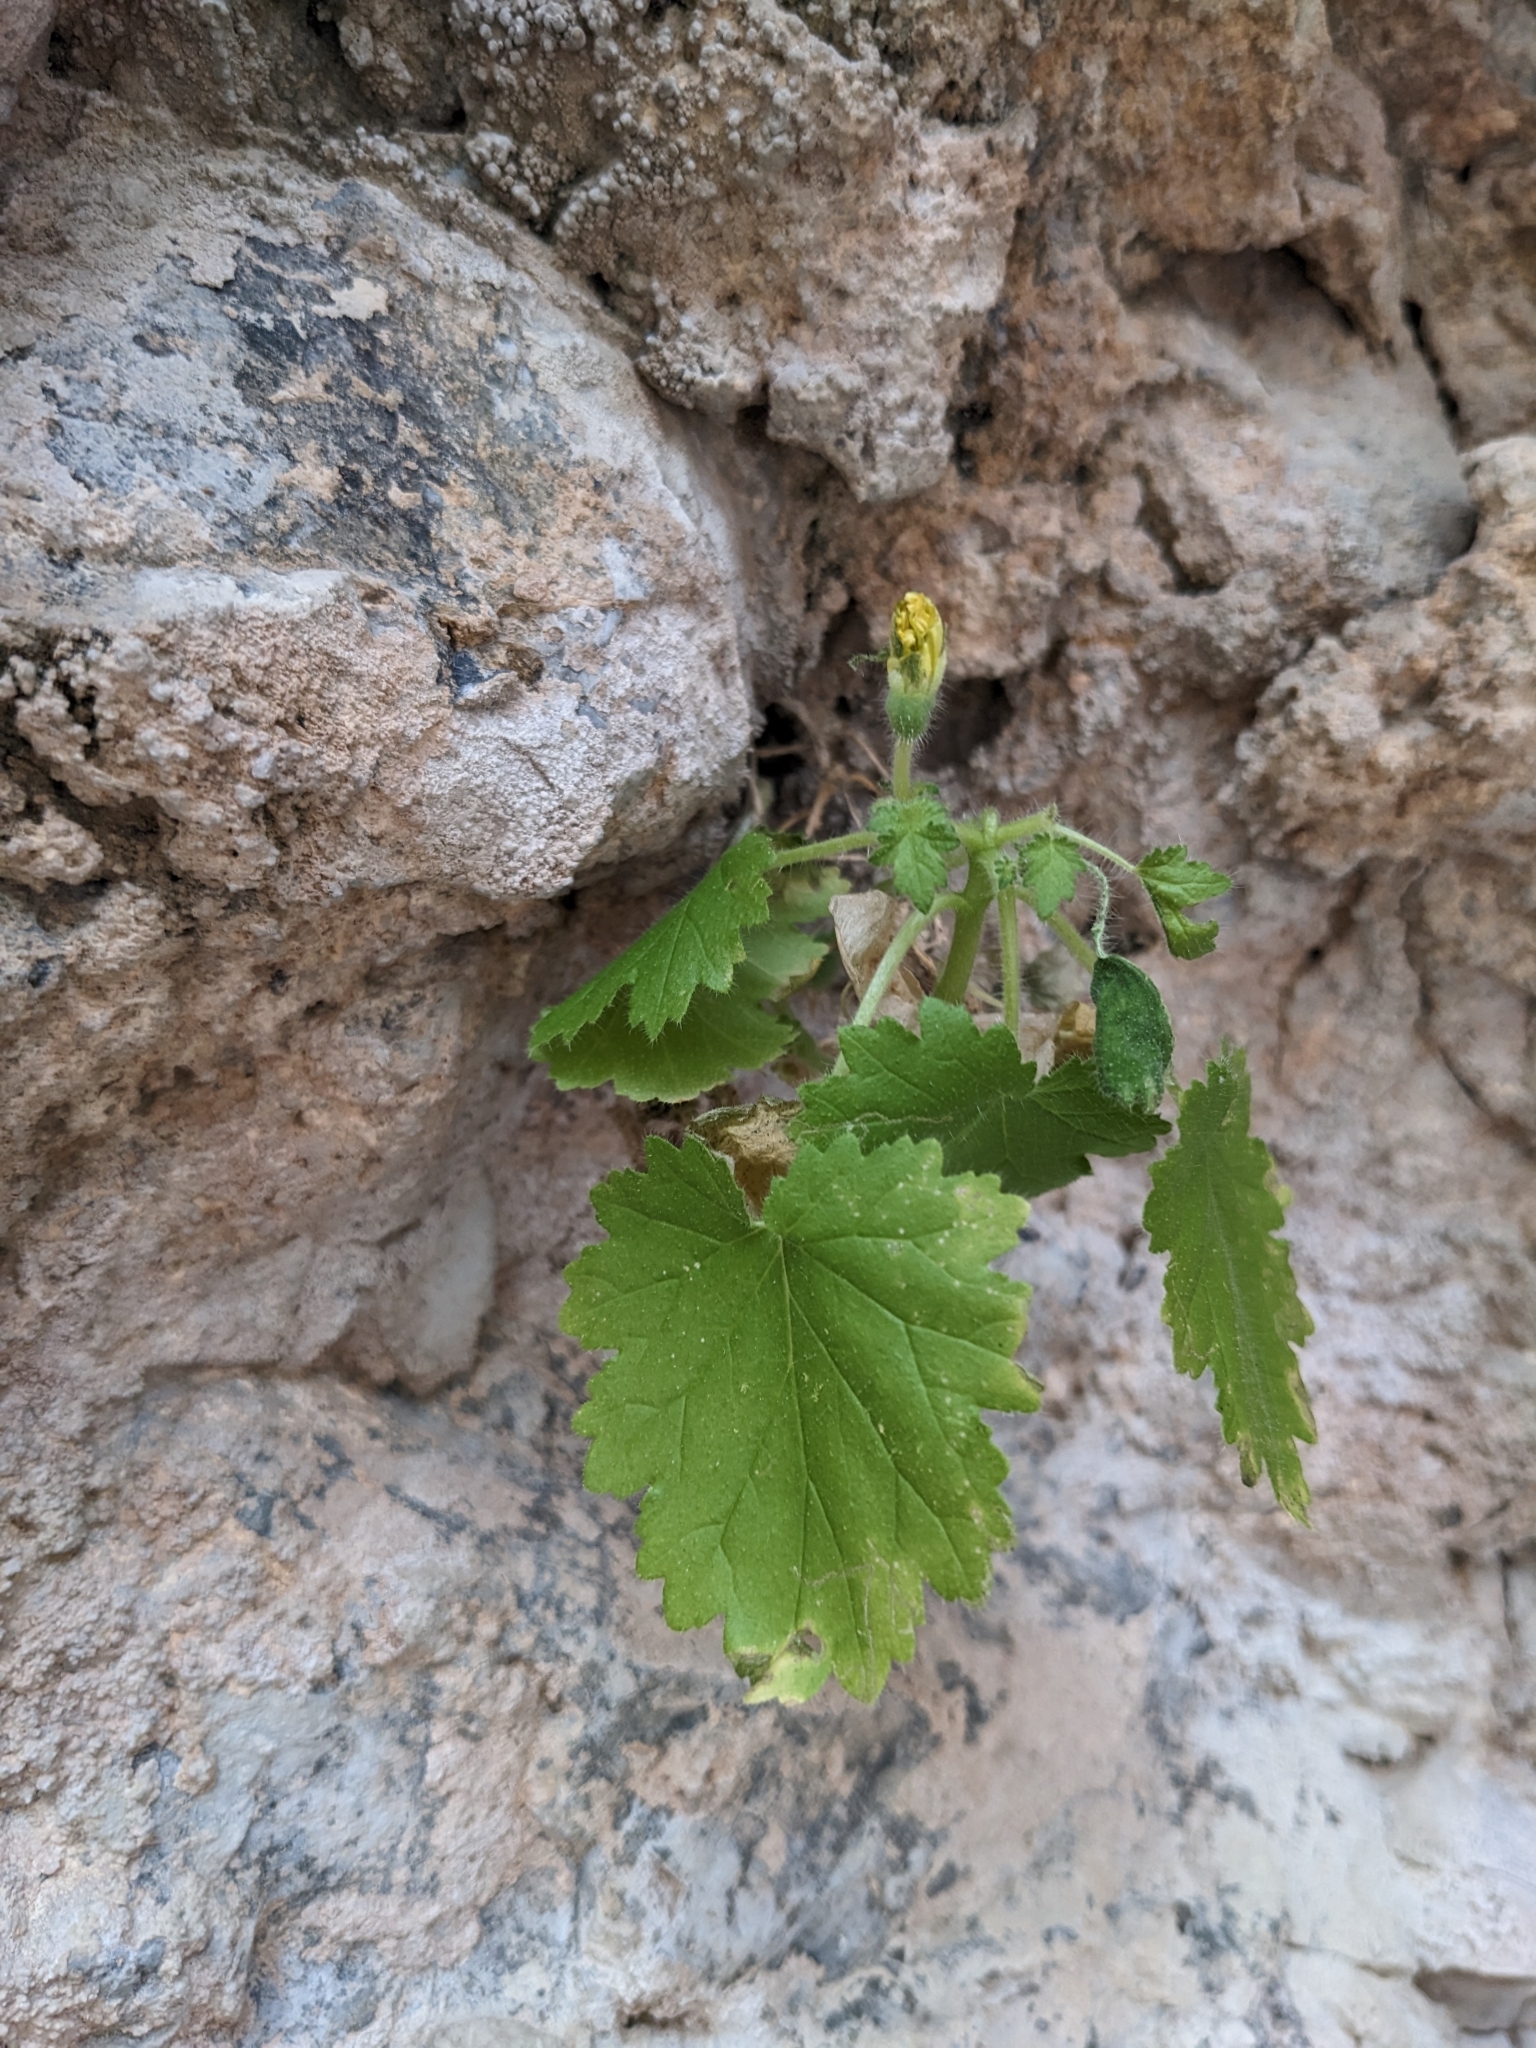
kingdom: Plantae
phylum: Tracheophyta
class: Magnoliopsida
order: Cornales
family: Loasaceae
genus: Eucnide
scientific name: Eucnide bartonioides
